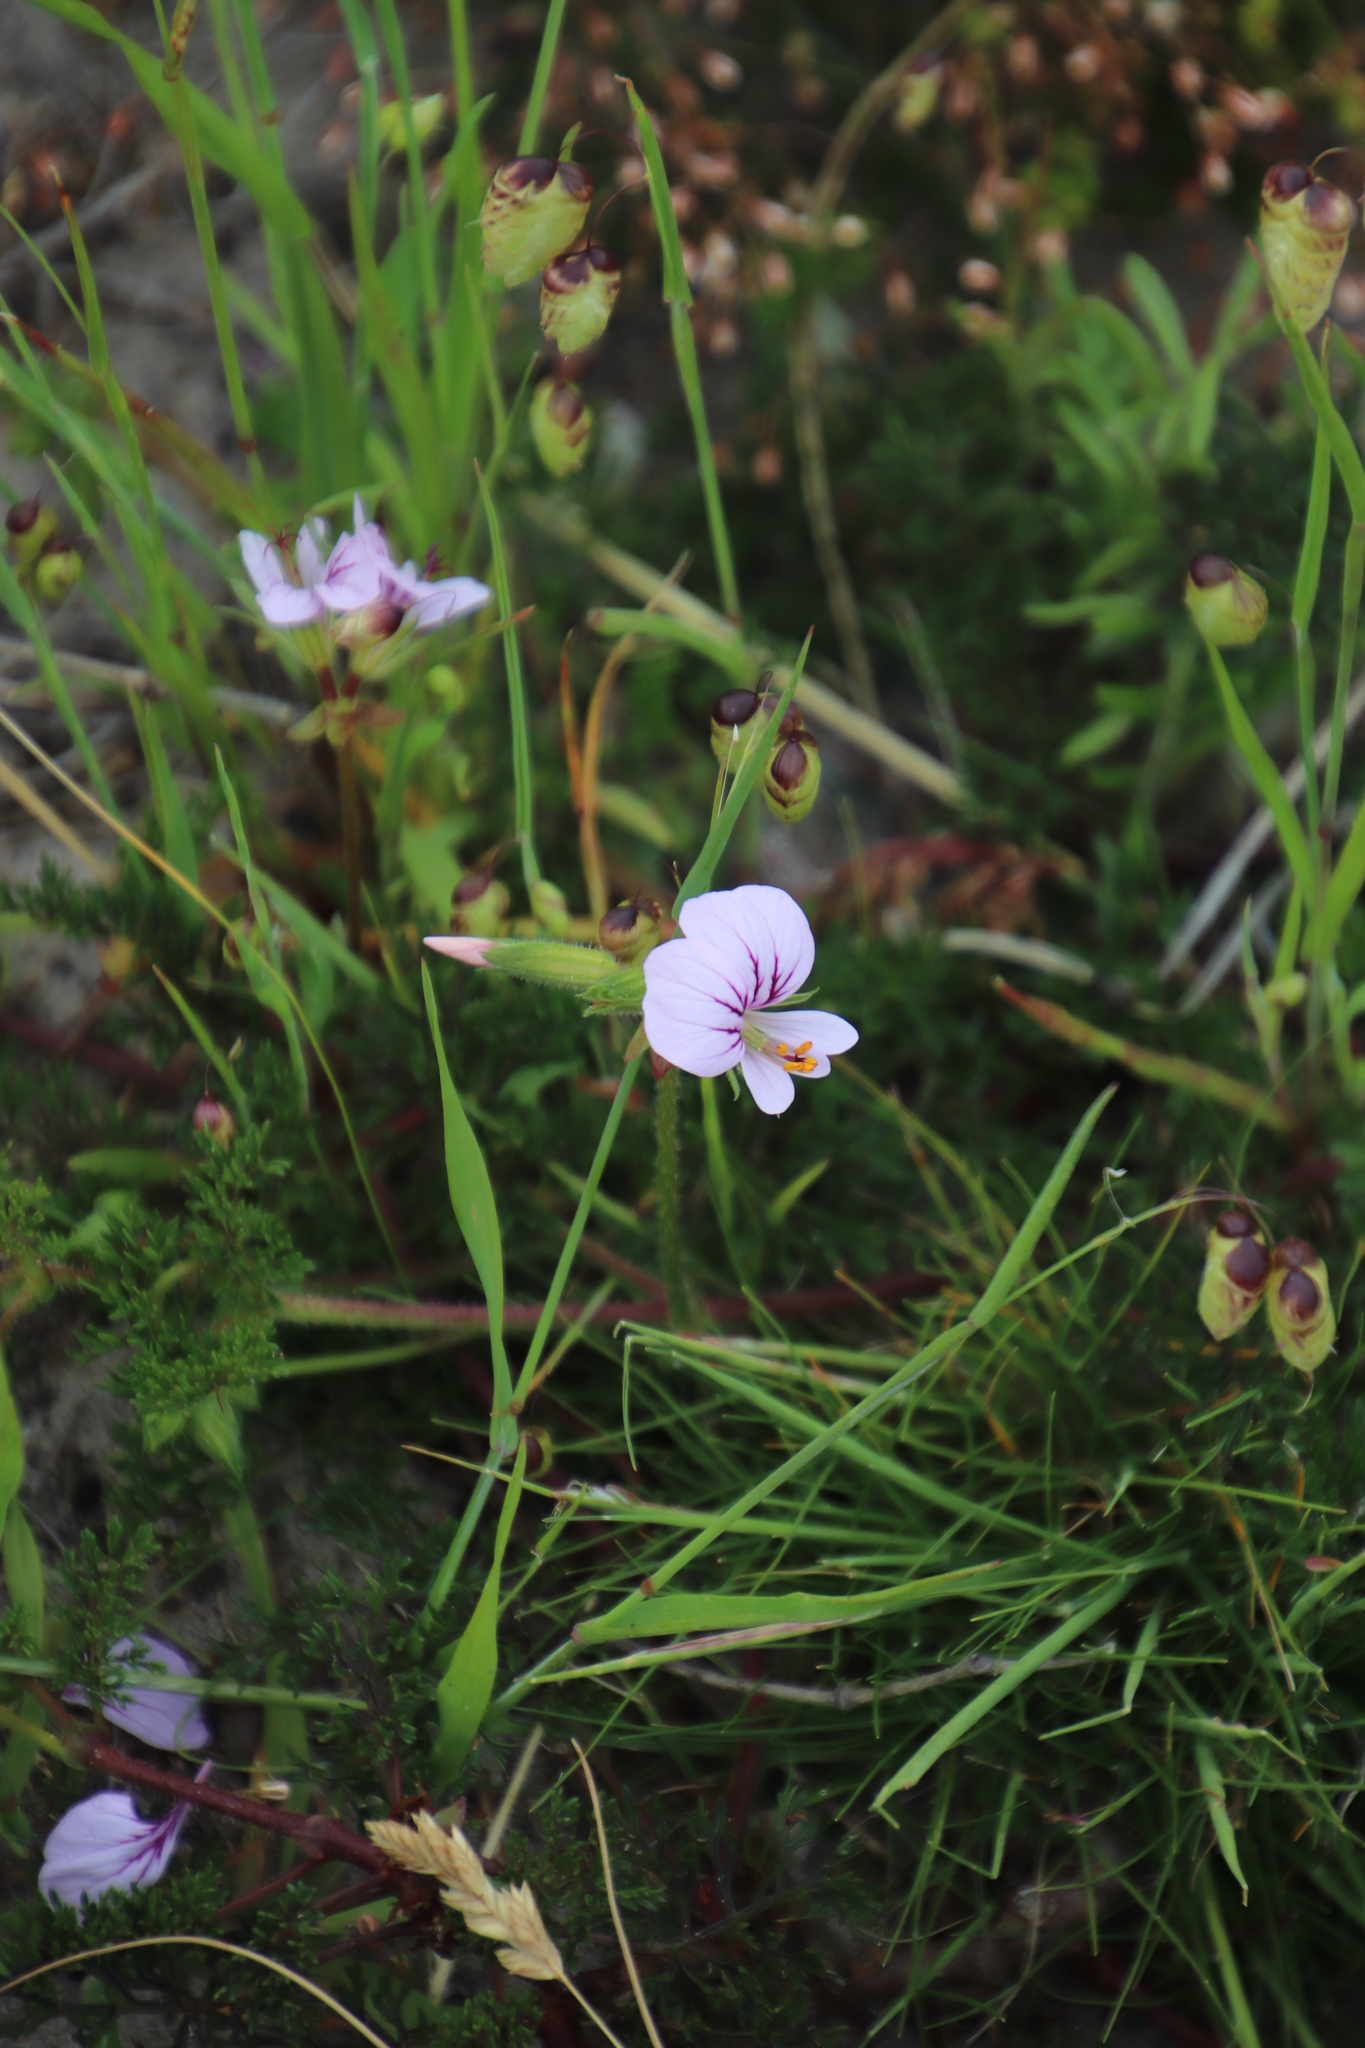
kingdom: Plantae
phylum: Tracheophyta
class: Magnoliopsida
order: Geraniales
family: Geraniaceae
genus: Pelargonium
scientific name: Pelargonium myrrhifolium
